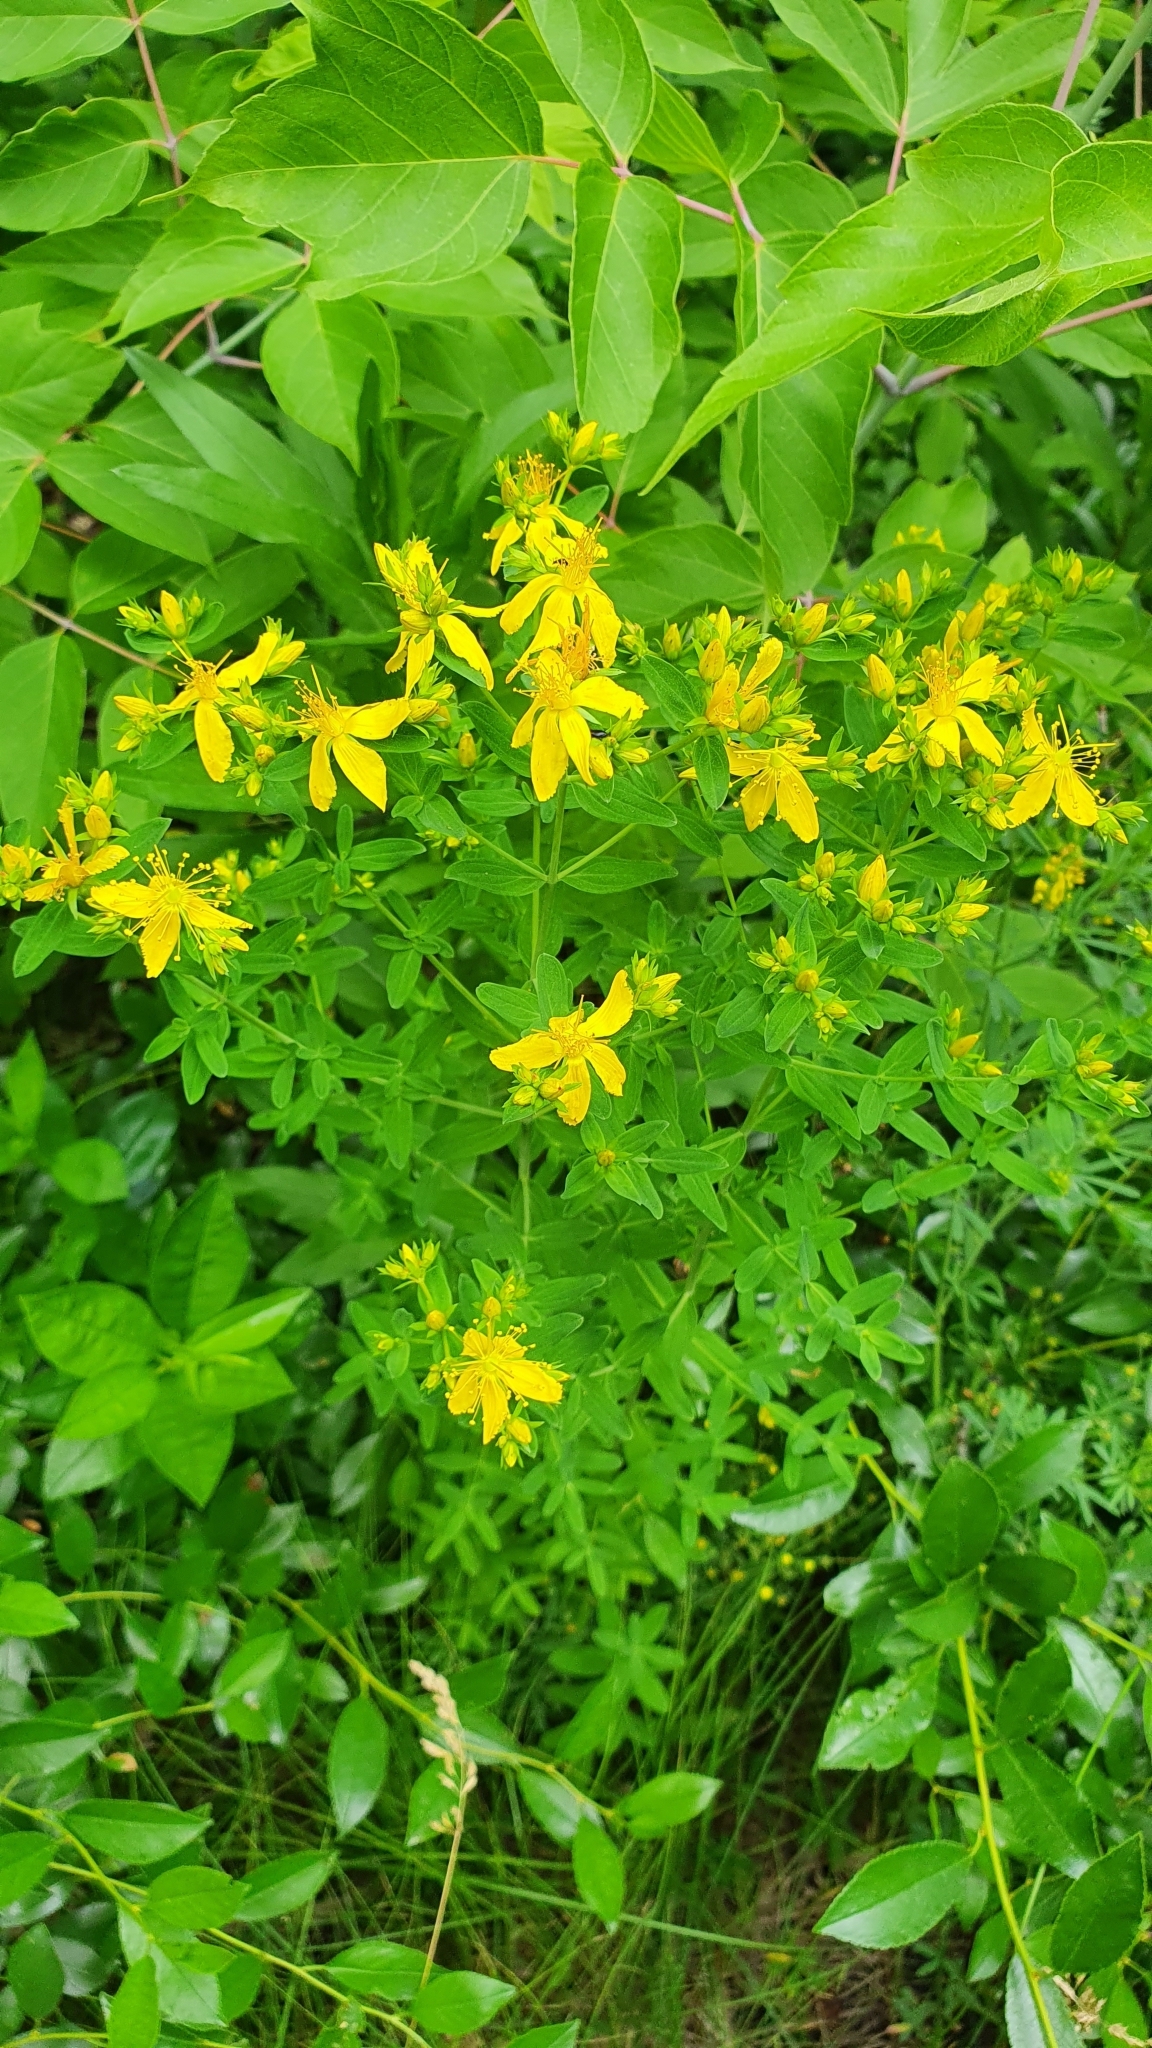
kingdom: Plantae
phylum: Tracheophyta
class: Magnoliopsida
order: Malpighiales
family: Hypericaceae
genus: Hypericum
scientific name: Hypericum perforatum
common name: Common st. johnswort
